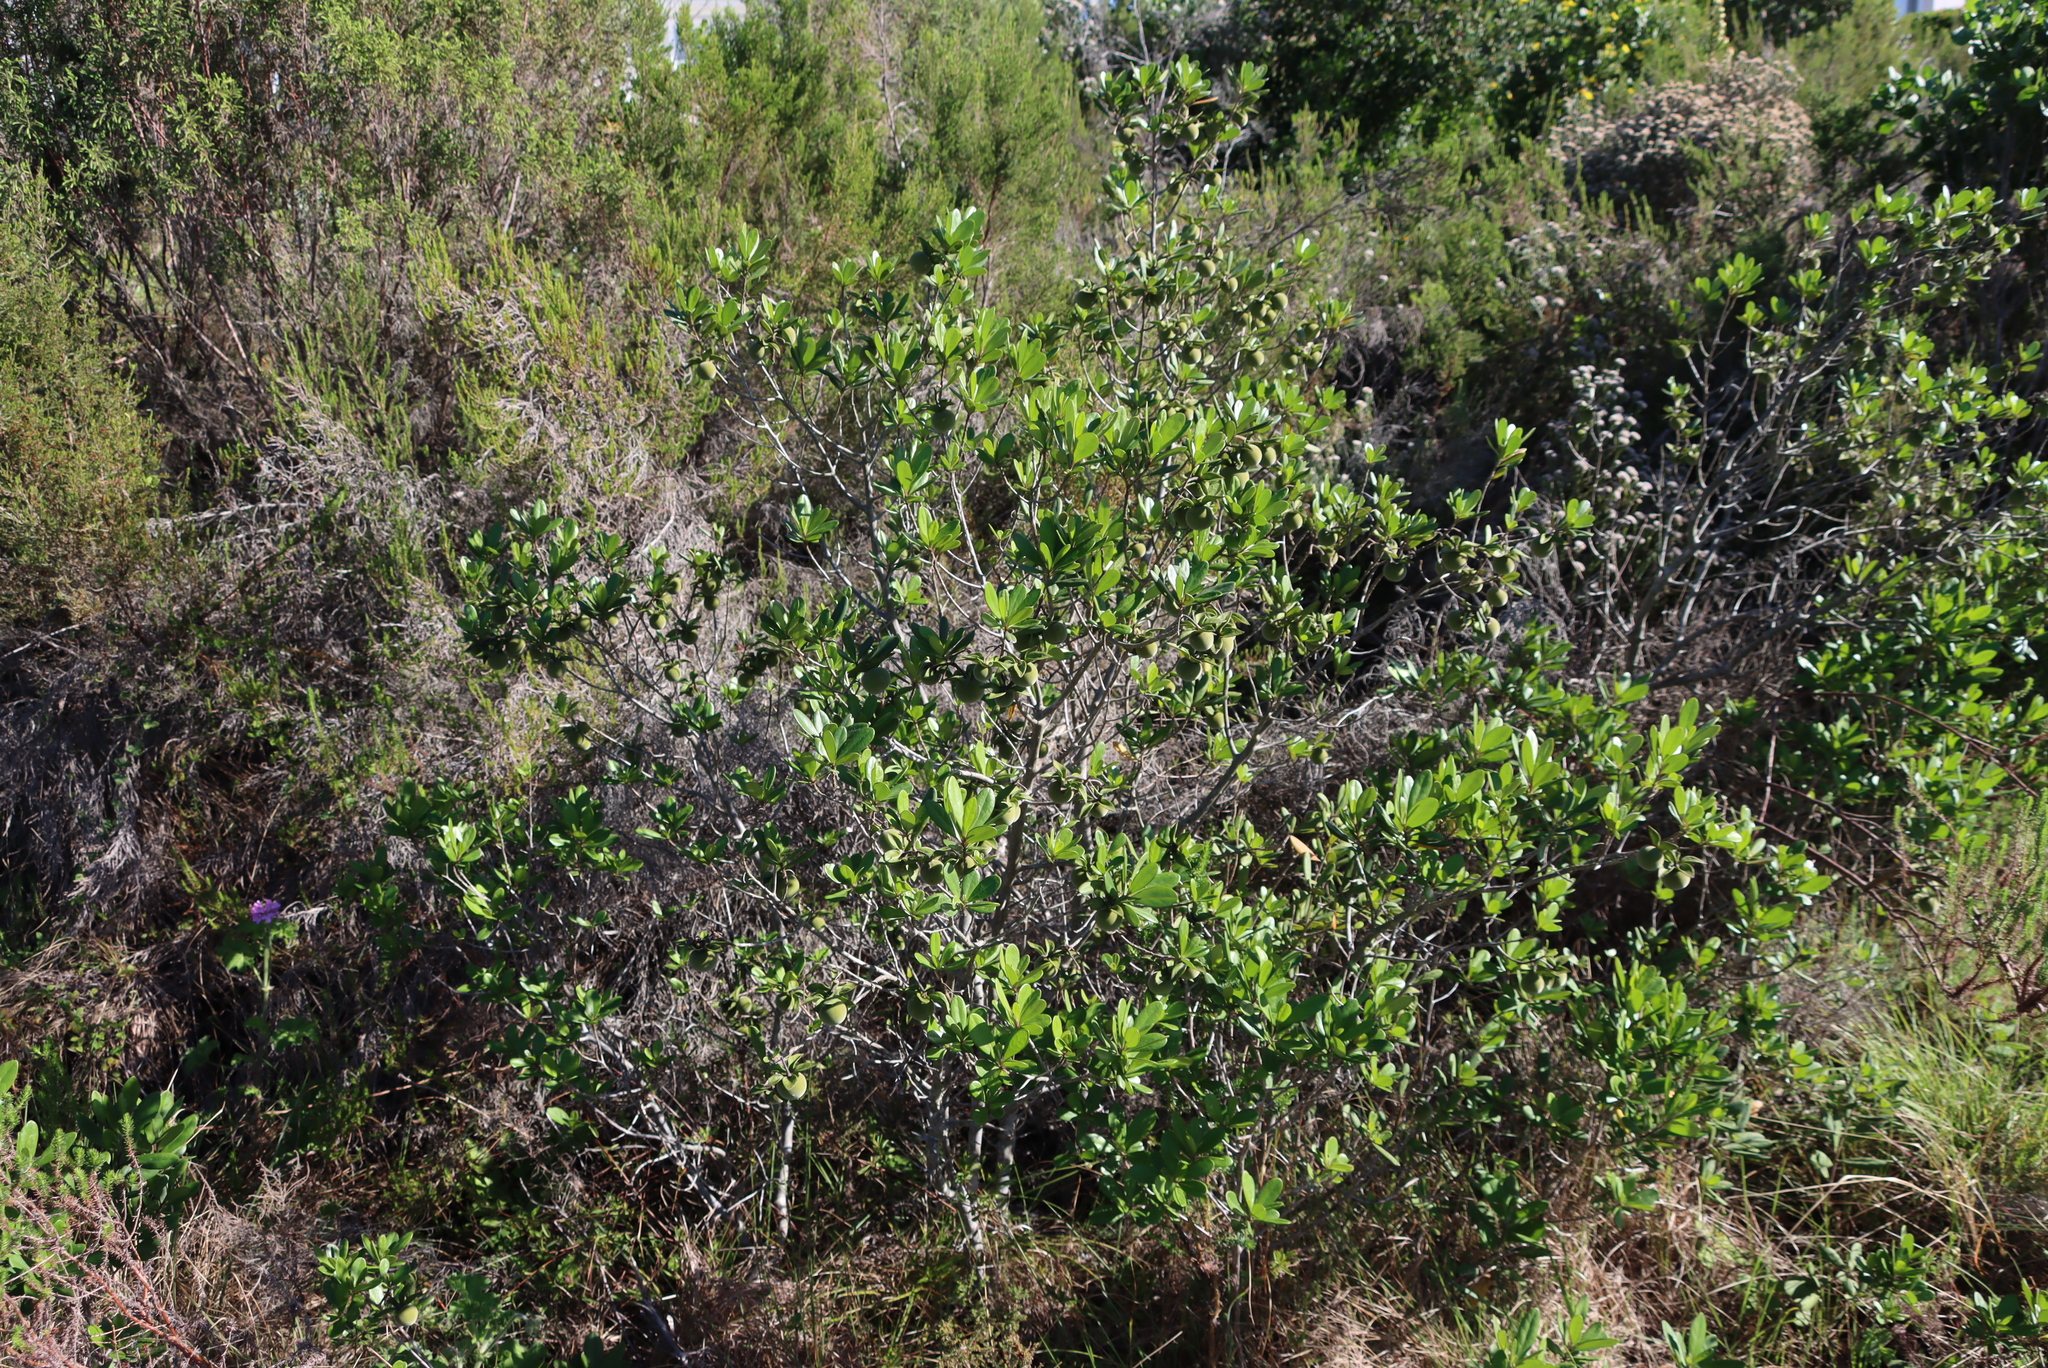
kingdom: Plantae
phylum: Tracheophyta
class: Magnoliopsida
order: Ericales
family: Ebenaceae
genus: Diospyros
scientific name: Diospyros dichrophylla
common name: Common star-apple
